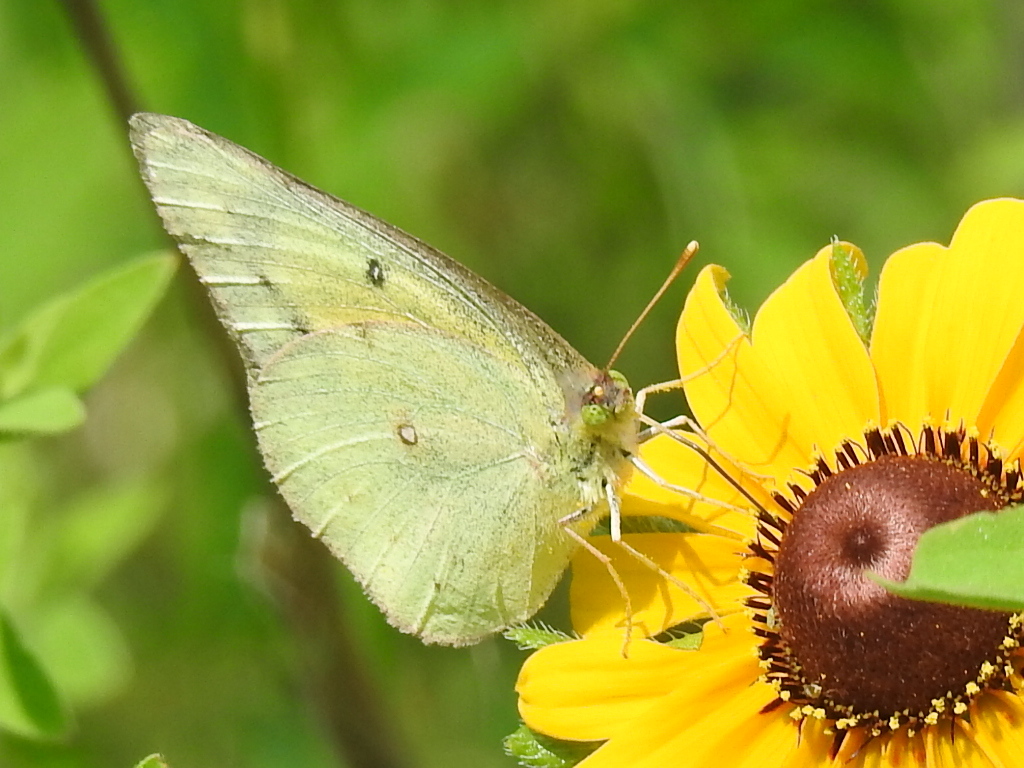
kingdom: Animalia
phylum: Arthropoda
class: Insecta
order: Lepidoptera
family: Pieridae
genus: Colias
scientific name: Colias eurytheme
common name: Alfalfa butterfly
